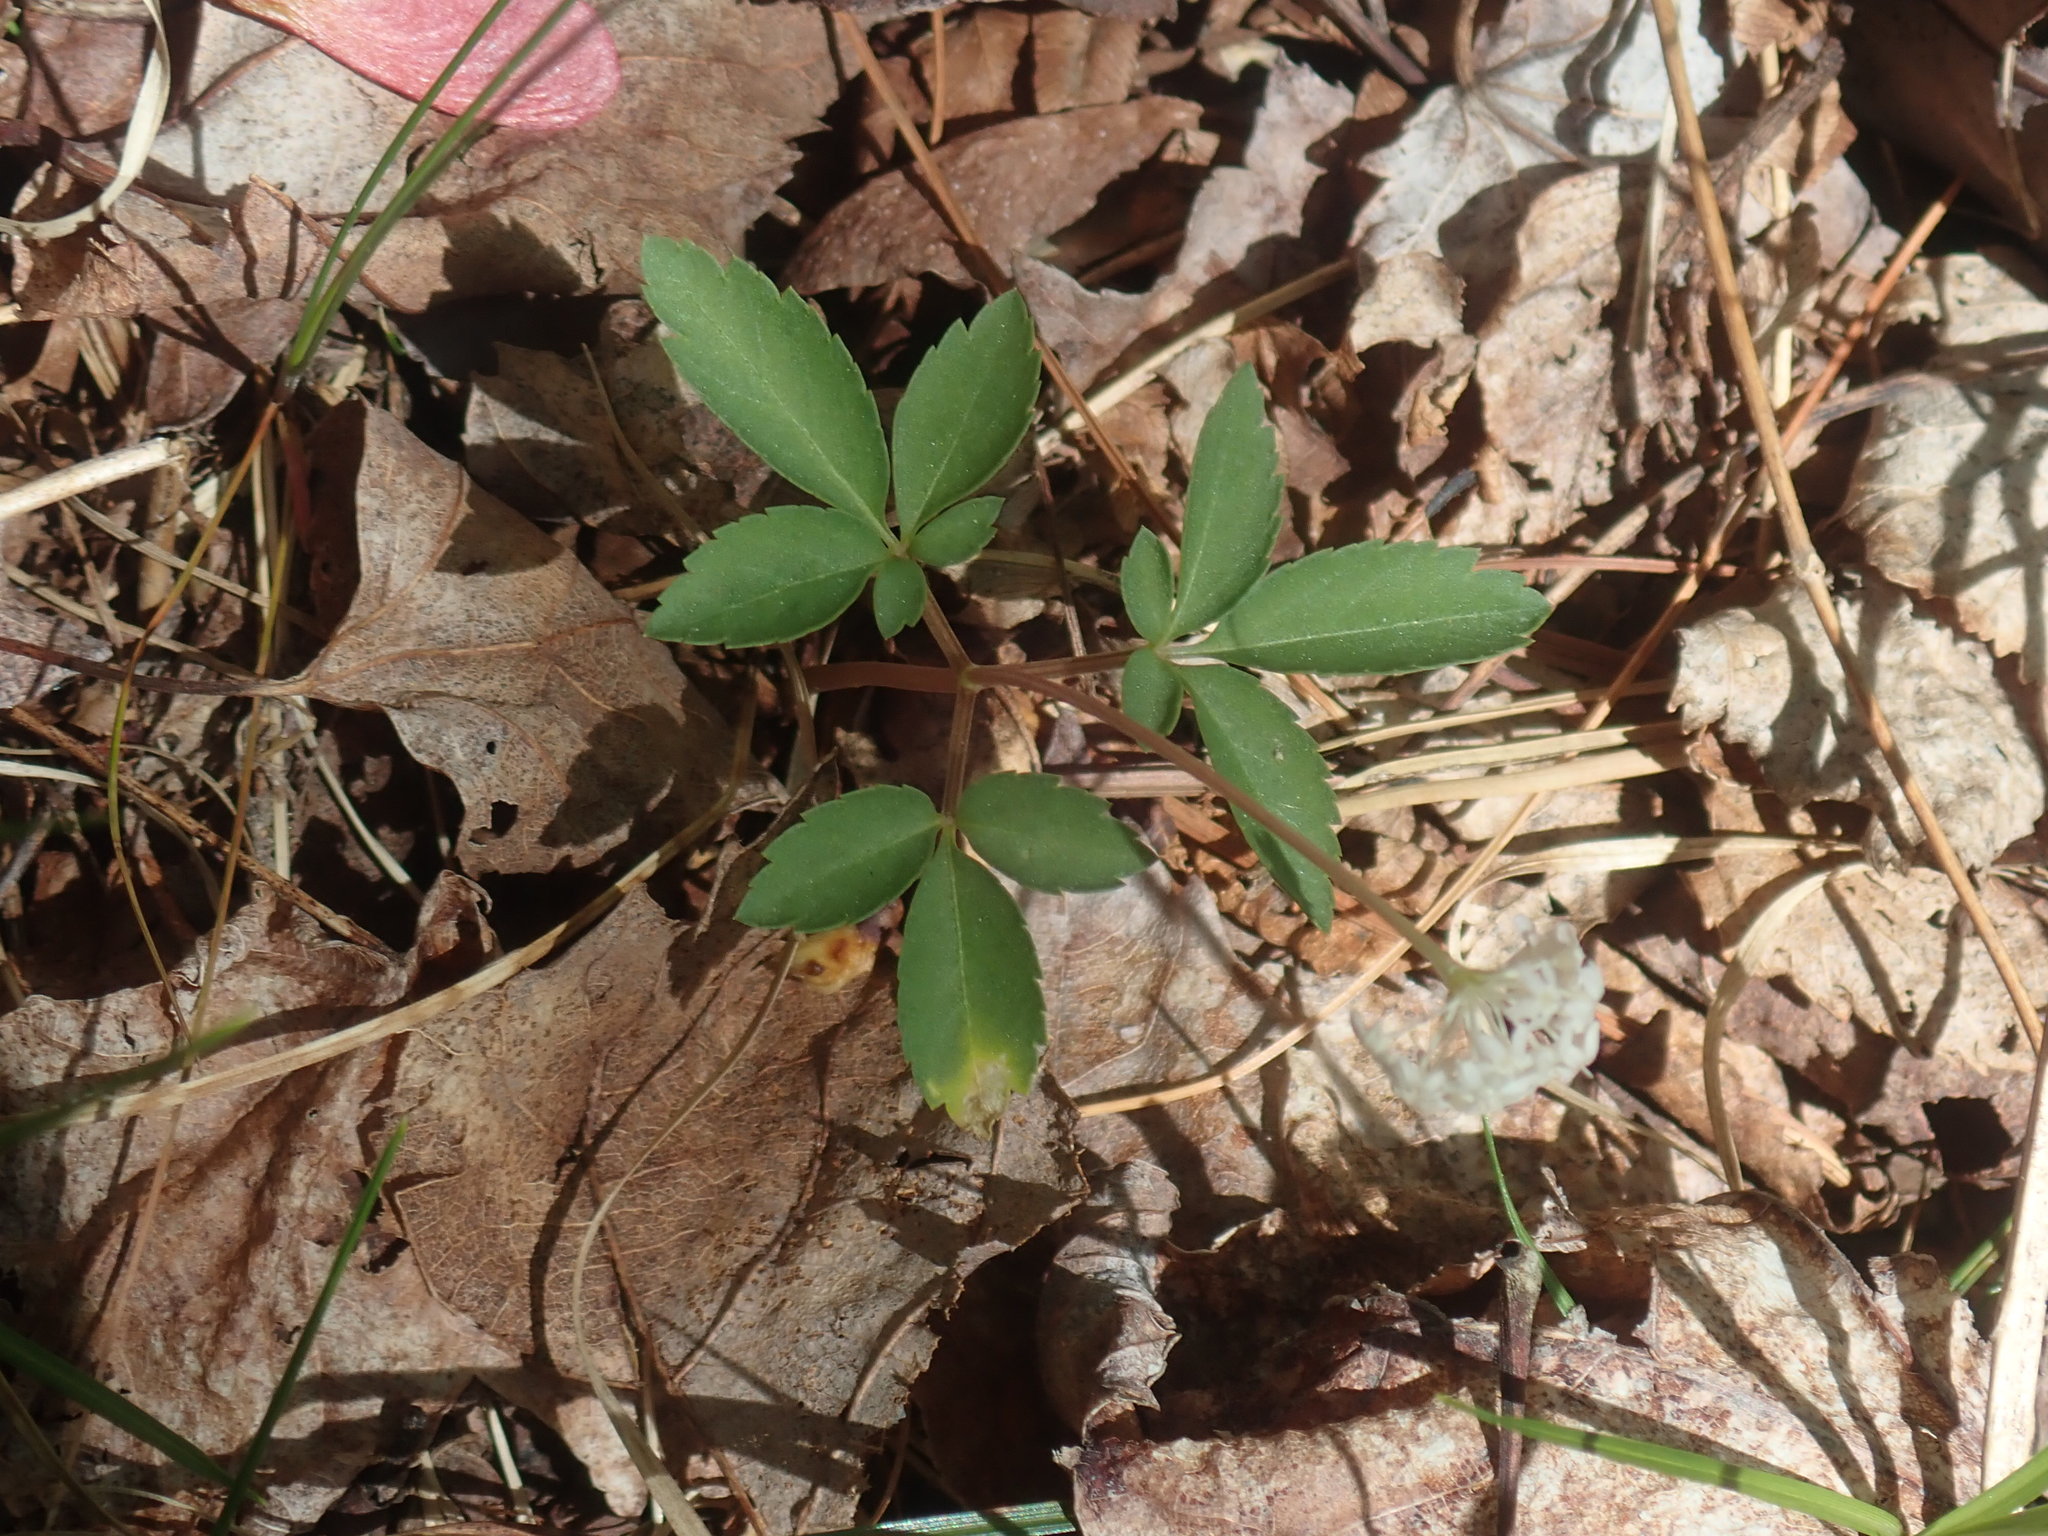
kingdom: Plantae
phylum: Tracheophyta
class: Magnoliopsida
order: Apiales
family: Araliaceae
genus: Panax
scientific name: Panax trifolius
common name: Dwarf ginseng
